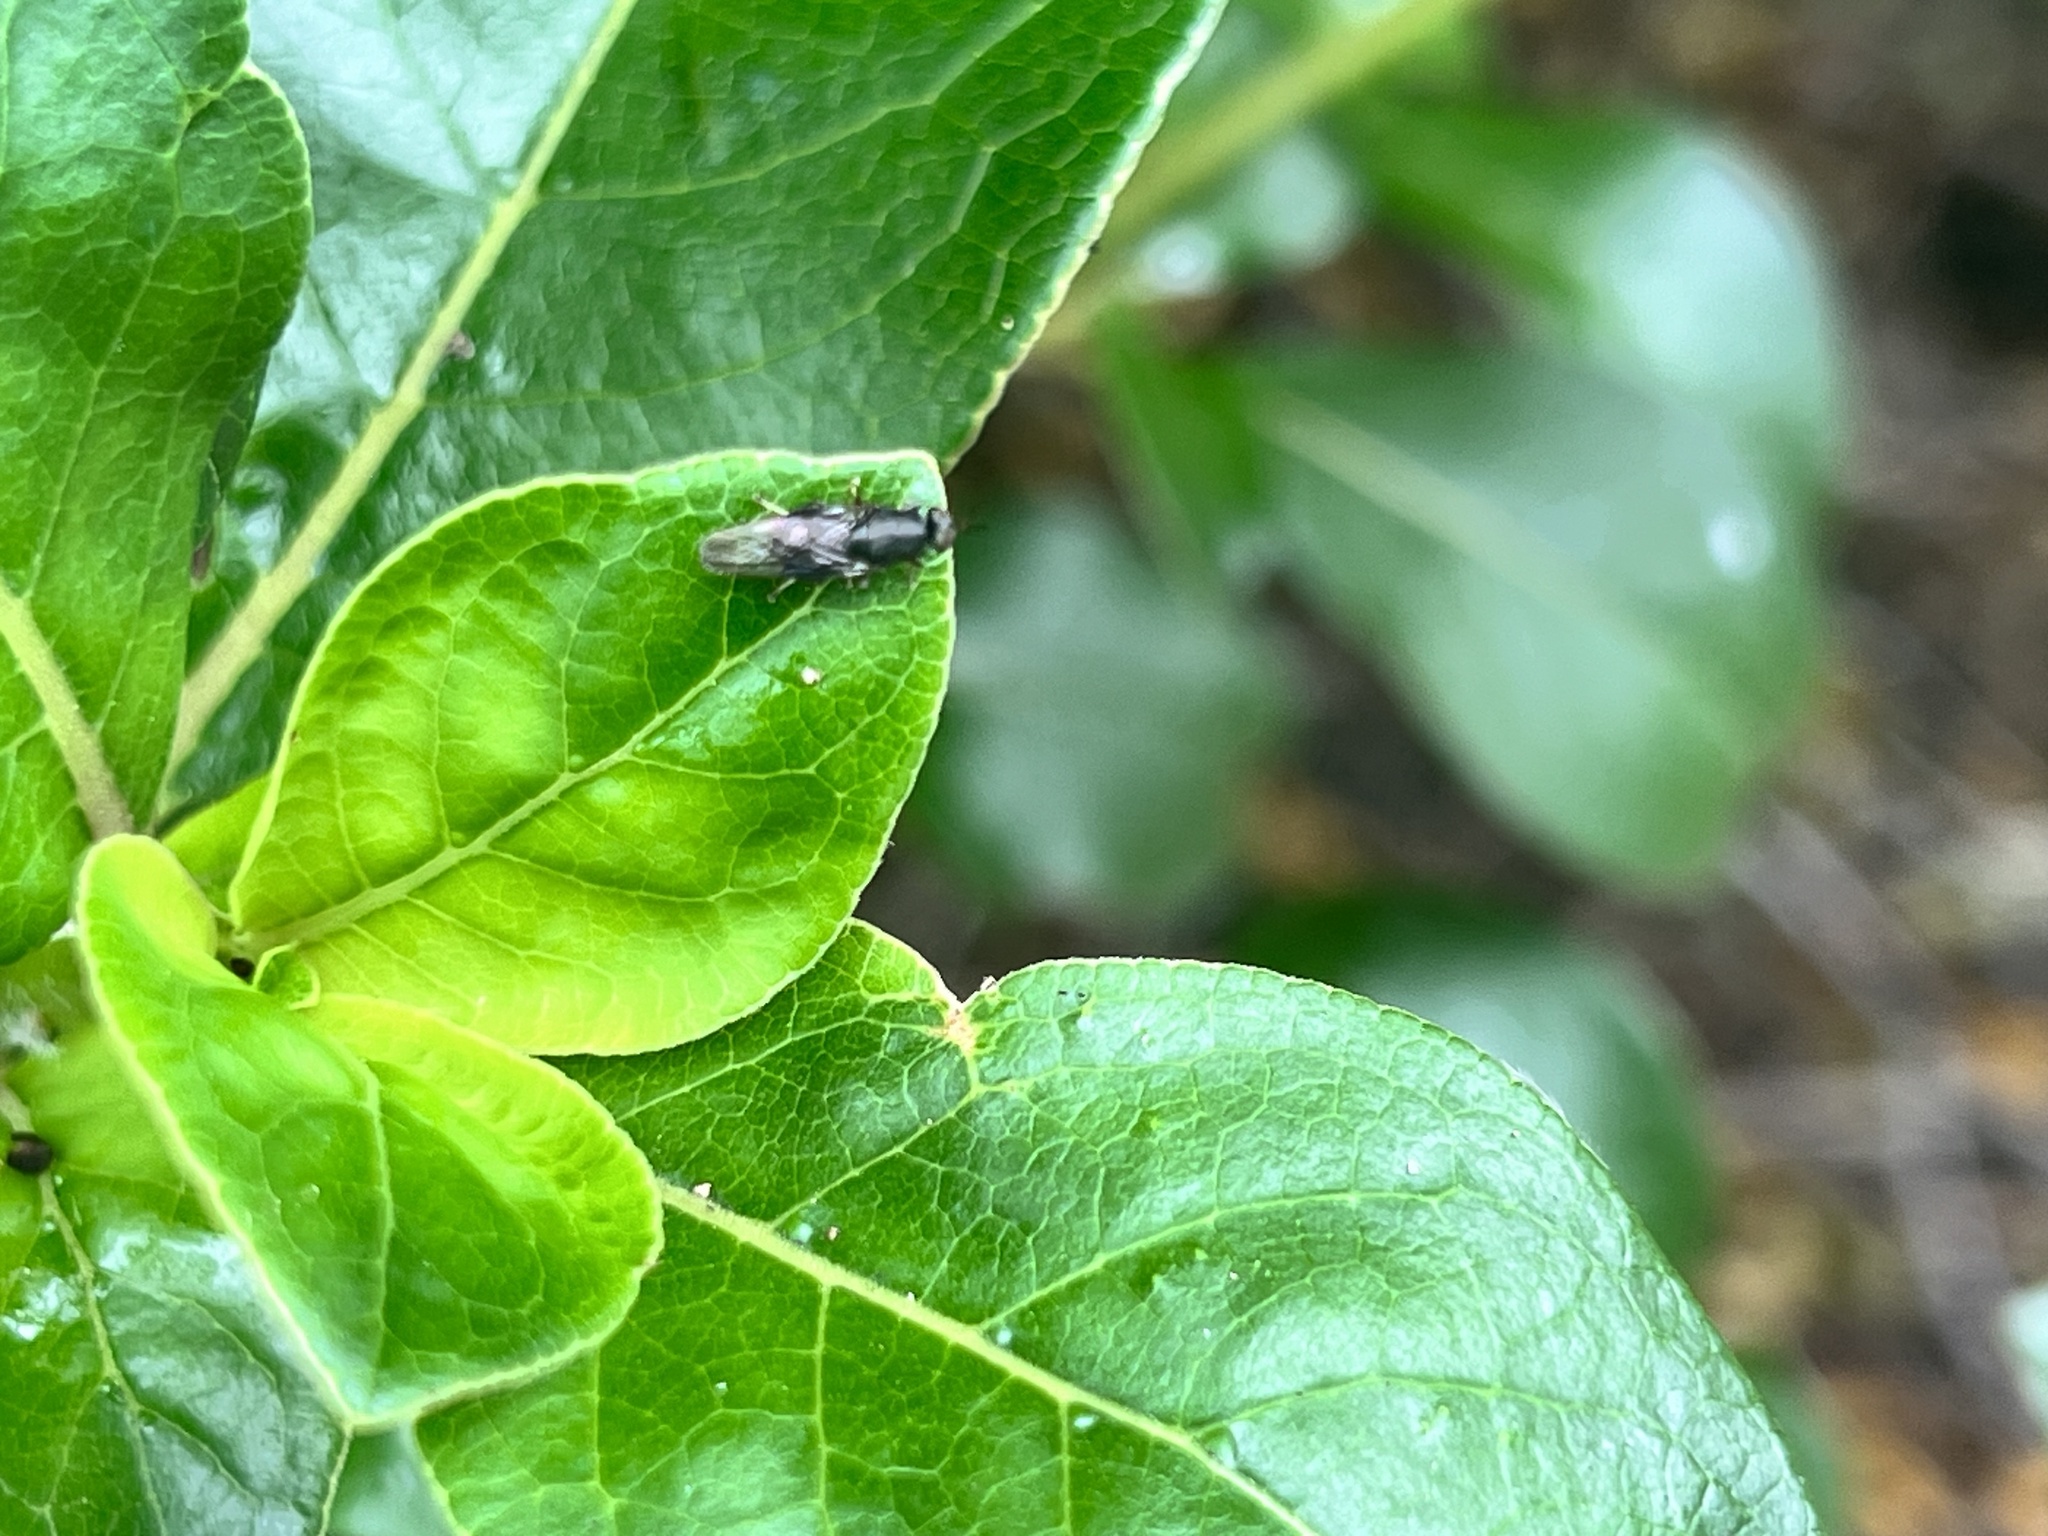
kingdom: Animalia
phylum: Arthropoda
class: Insecta
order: Diptera
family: Stratiomyidae
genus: Dysbiota
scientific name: Dysbiota peregrina
